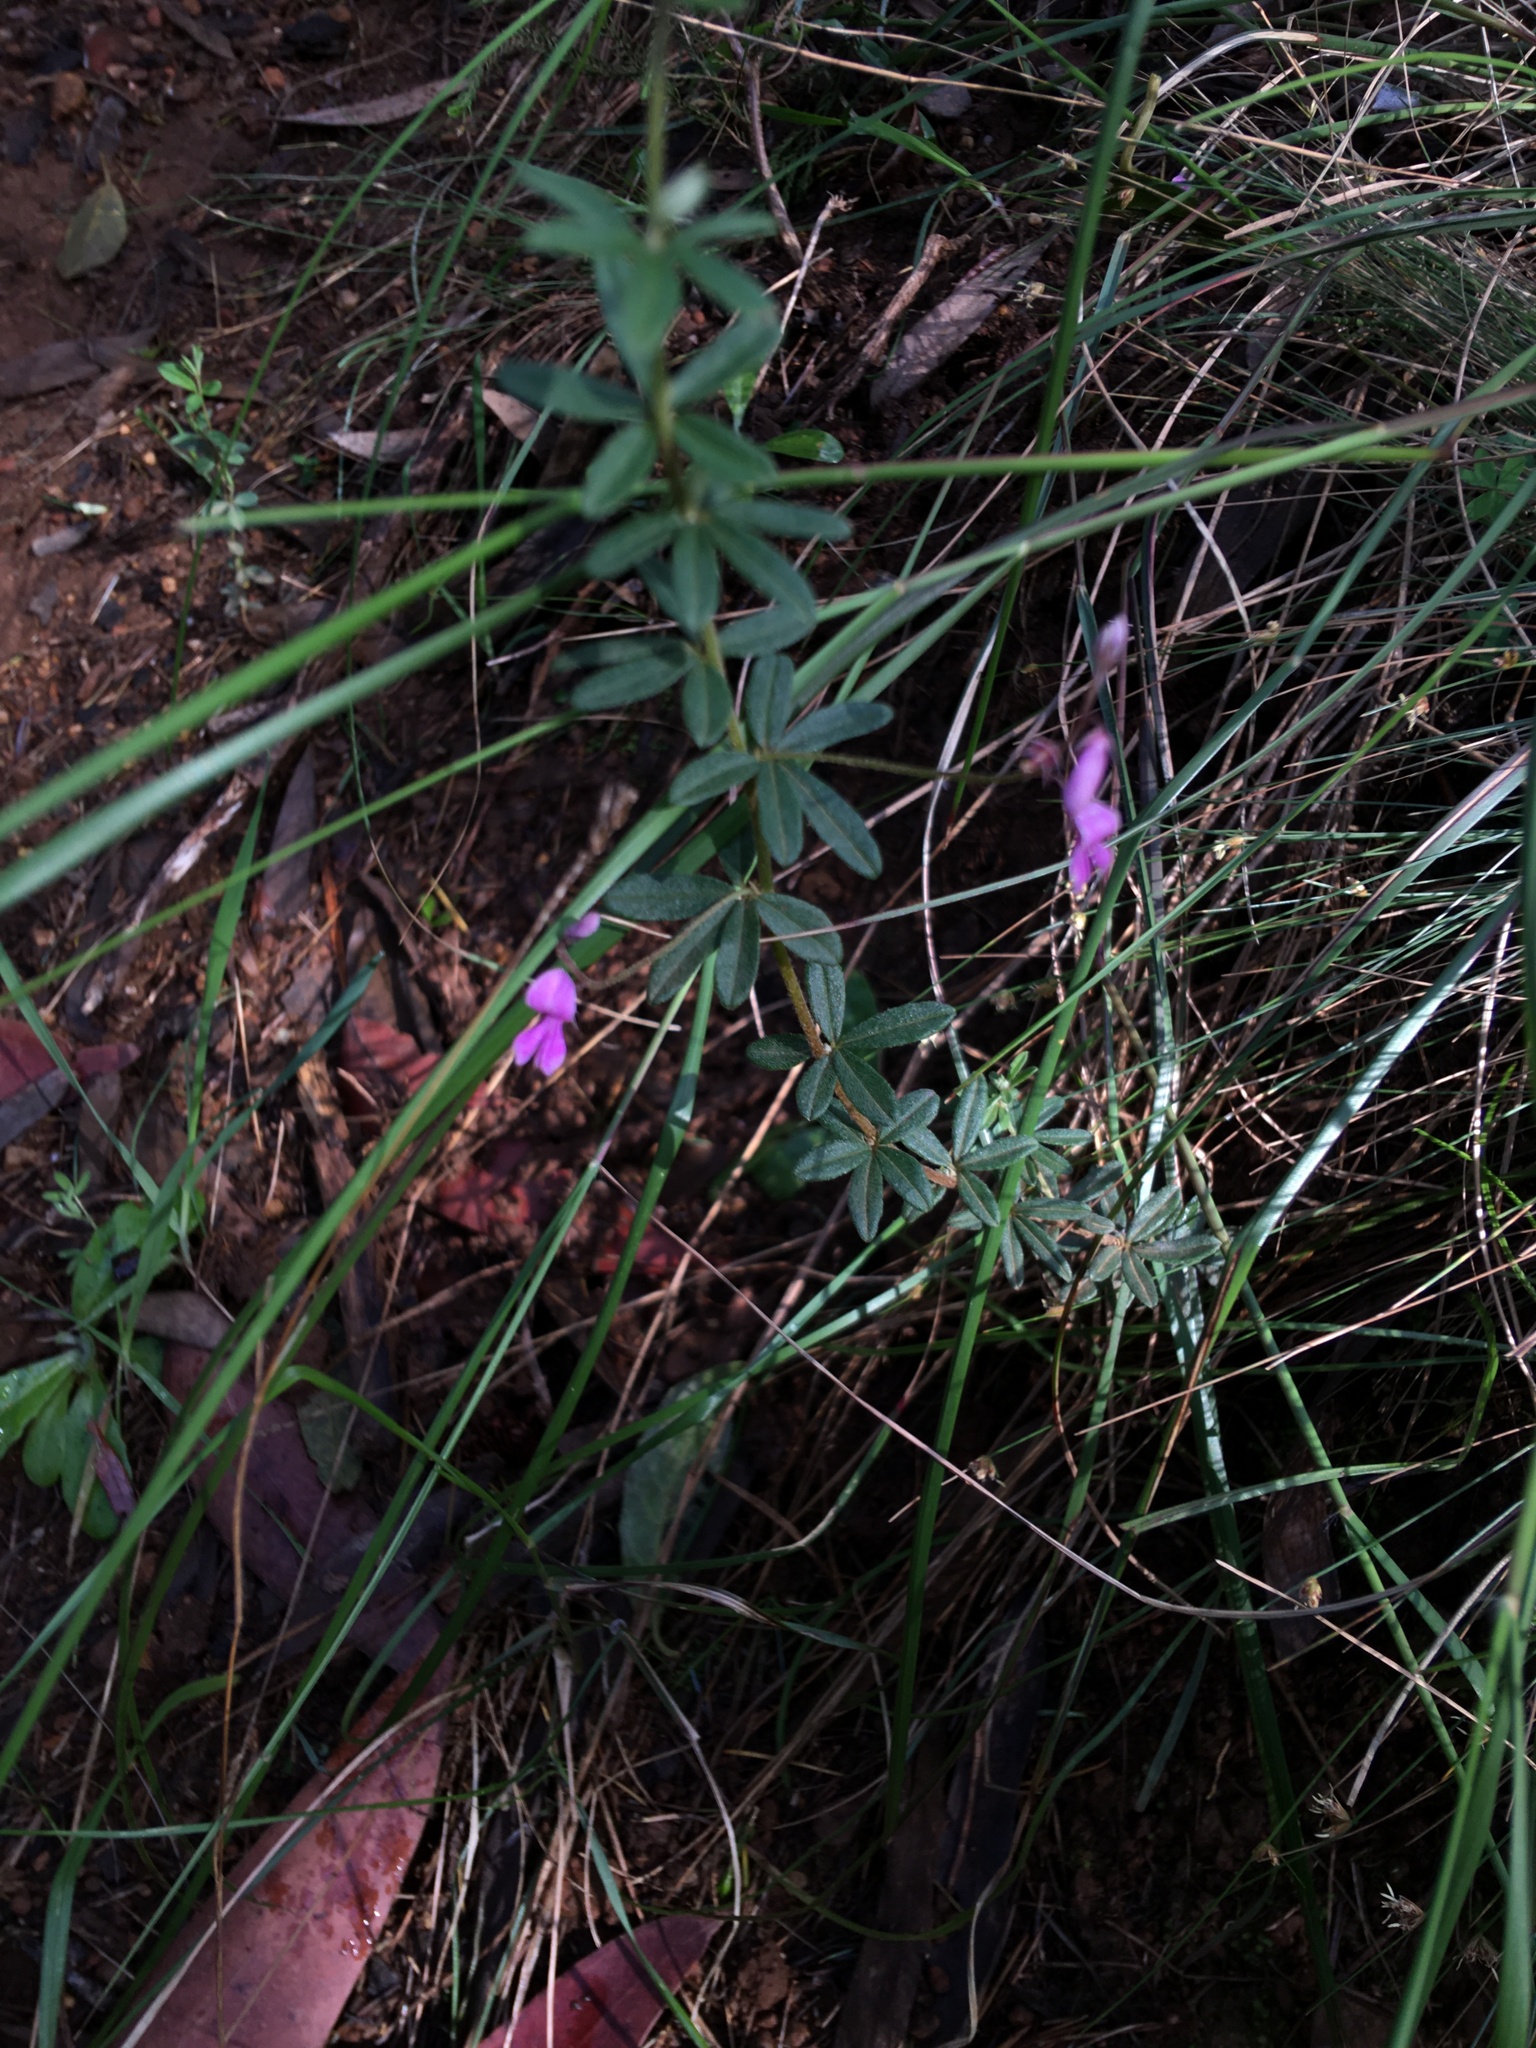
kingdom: Plantae
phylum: Tracheophyta
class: Magnoliopsida
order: Fabales
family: Fabaceae
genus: Indigofera
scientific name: Indigofera filiformis
